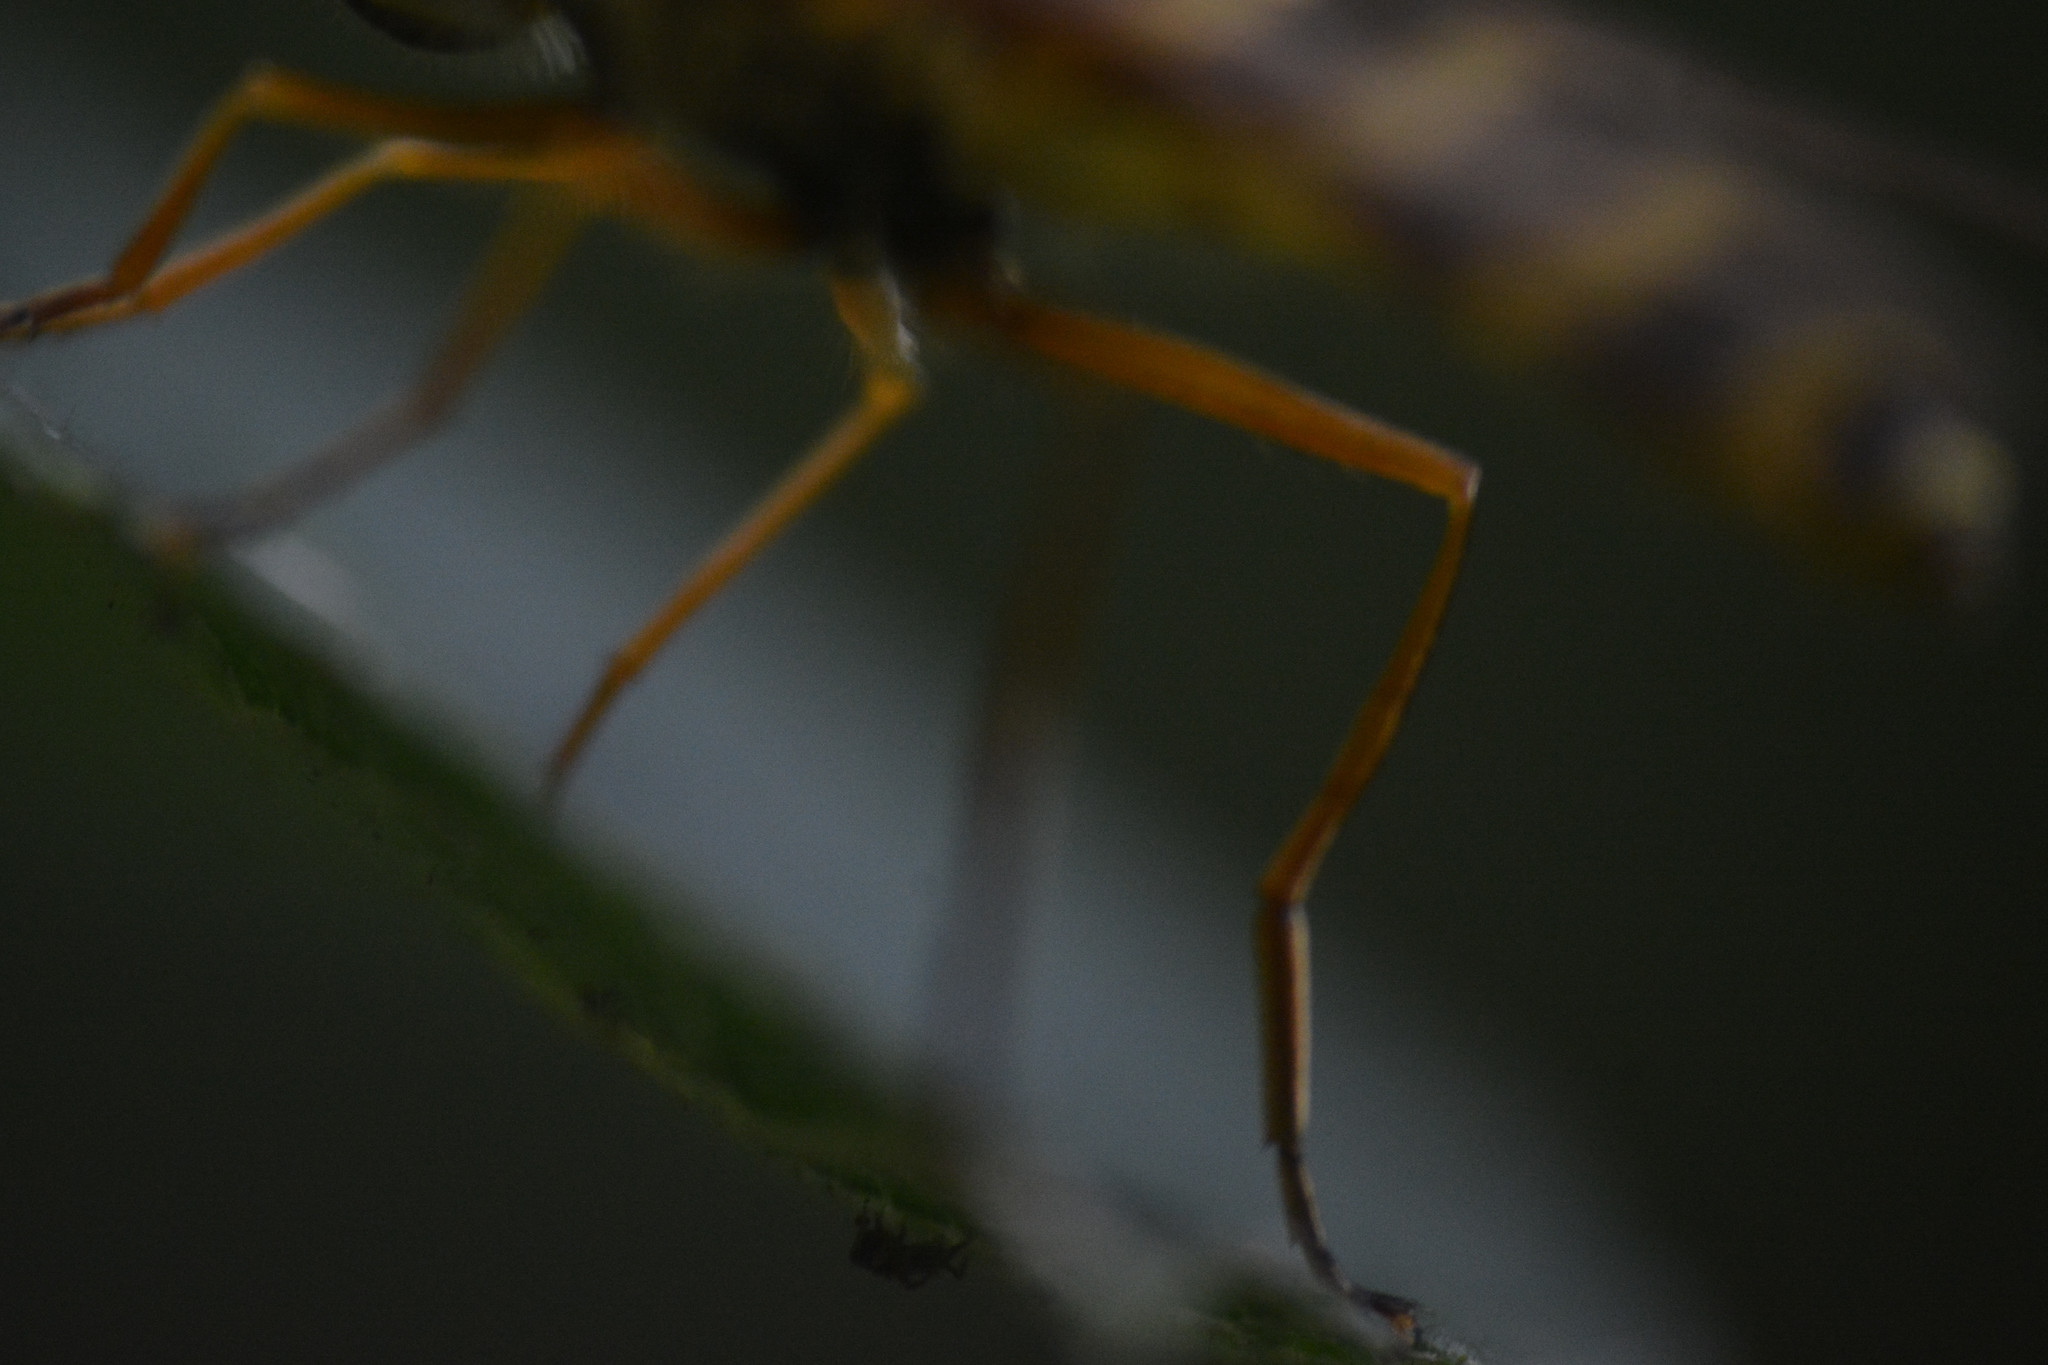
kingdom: Animalia
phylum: Arthropoda
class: Insecta
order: Diptera
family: Syrphidae
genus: Syrphus
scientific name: Syrphus ribesii
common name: Common flower fly
